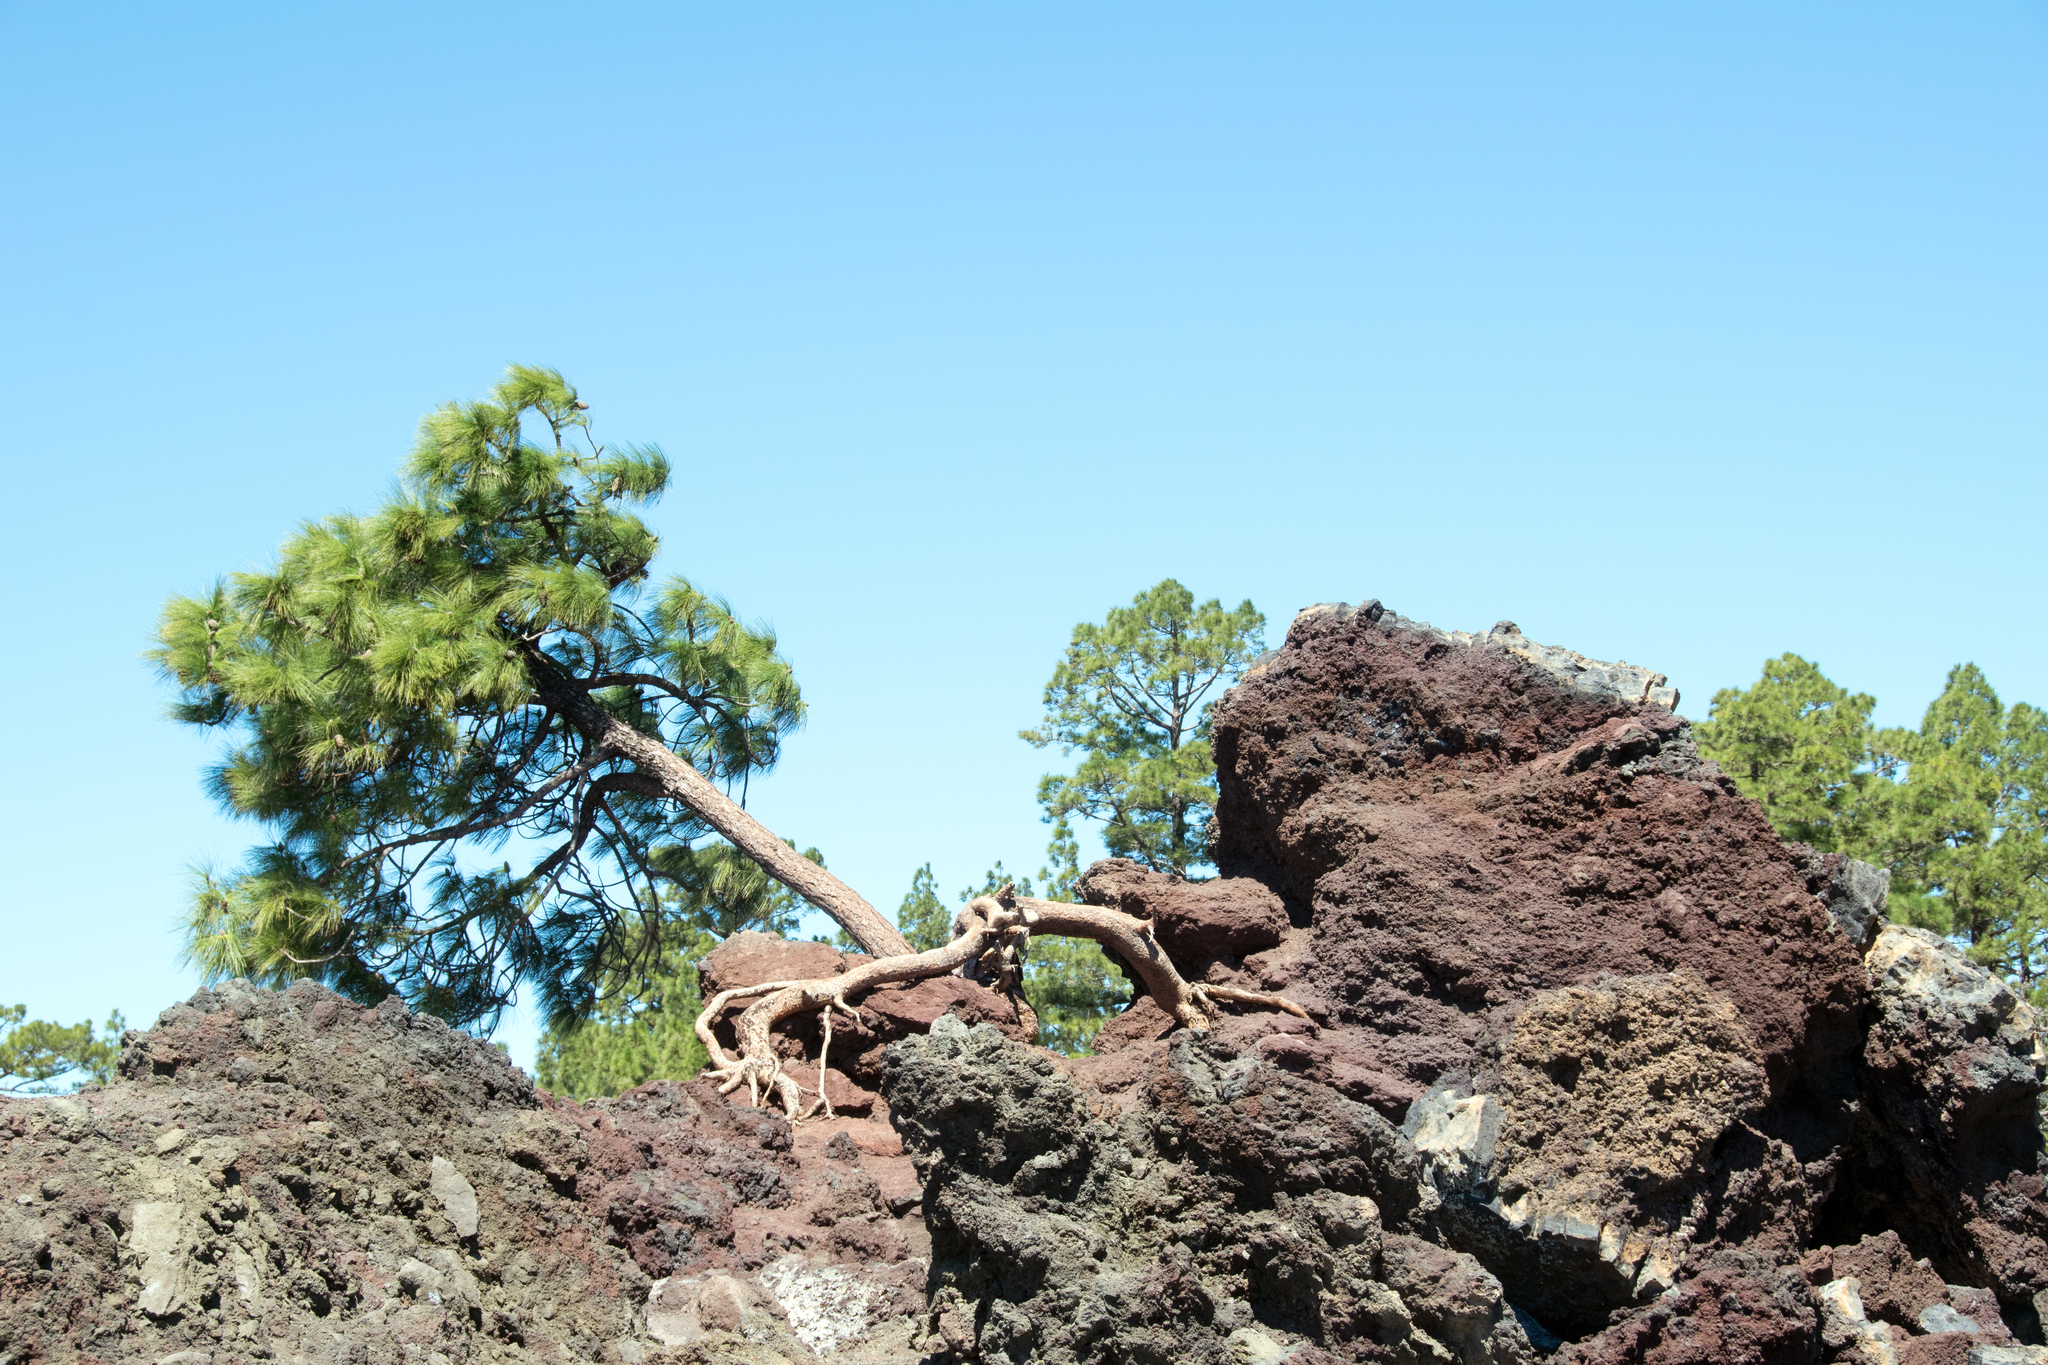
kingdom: Plantae
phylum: Tracheophyta
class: Pinopsida
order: Pinales
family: Pinaceae
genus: Pinus
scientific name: Pinus canariensis
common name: Canary islands pine
